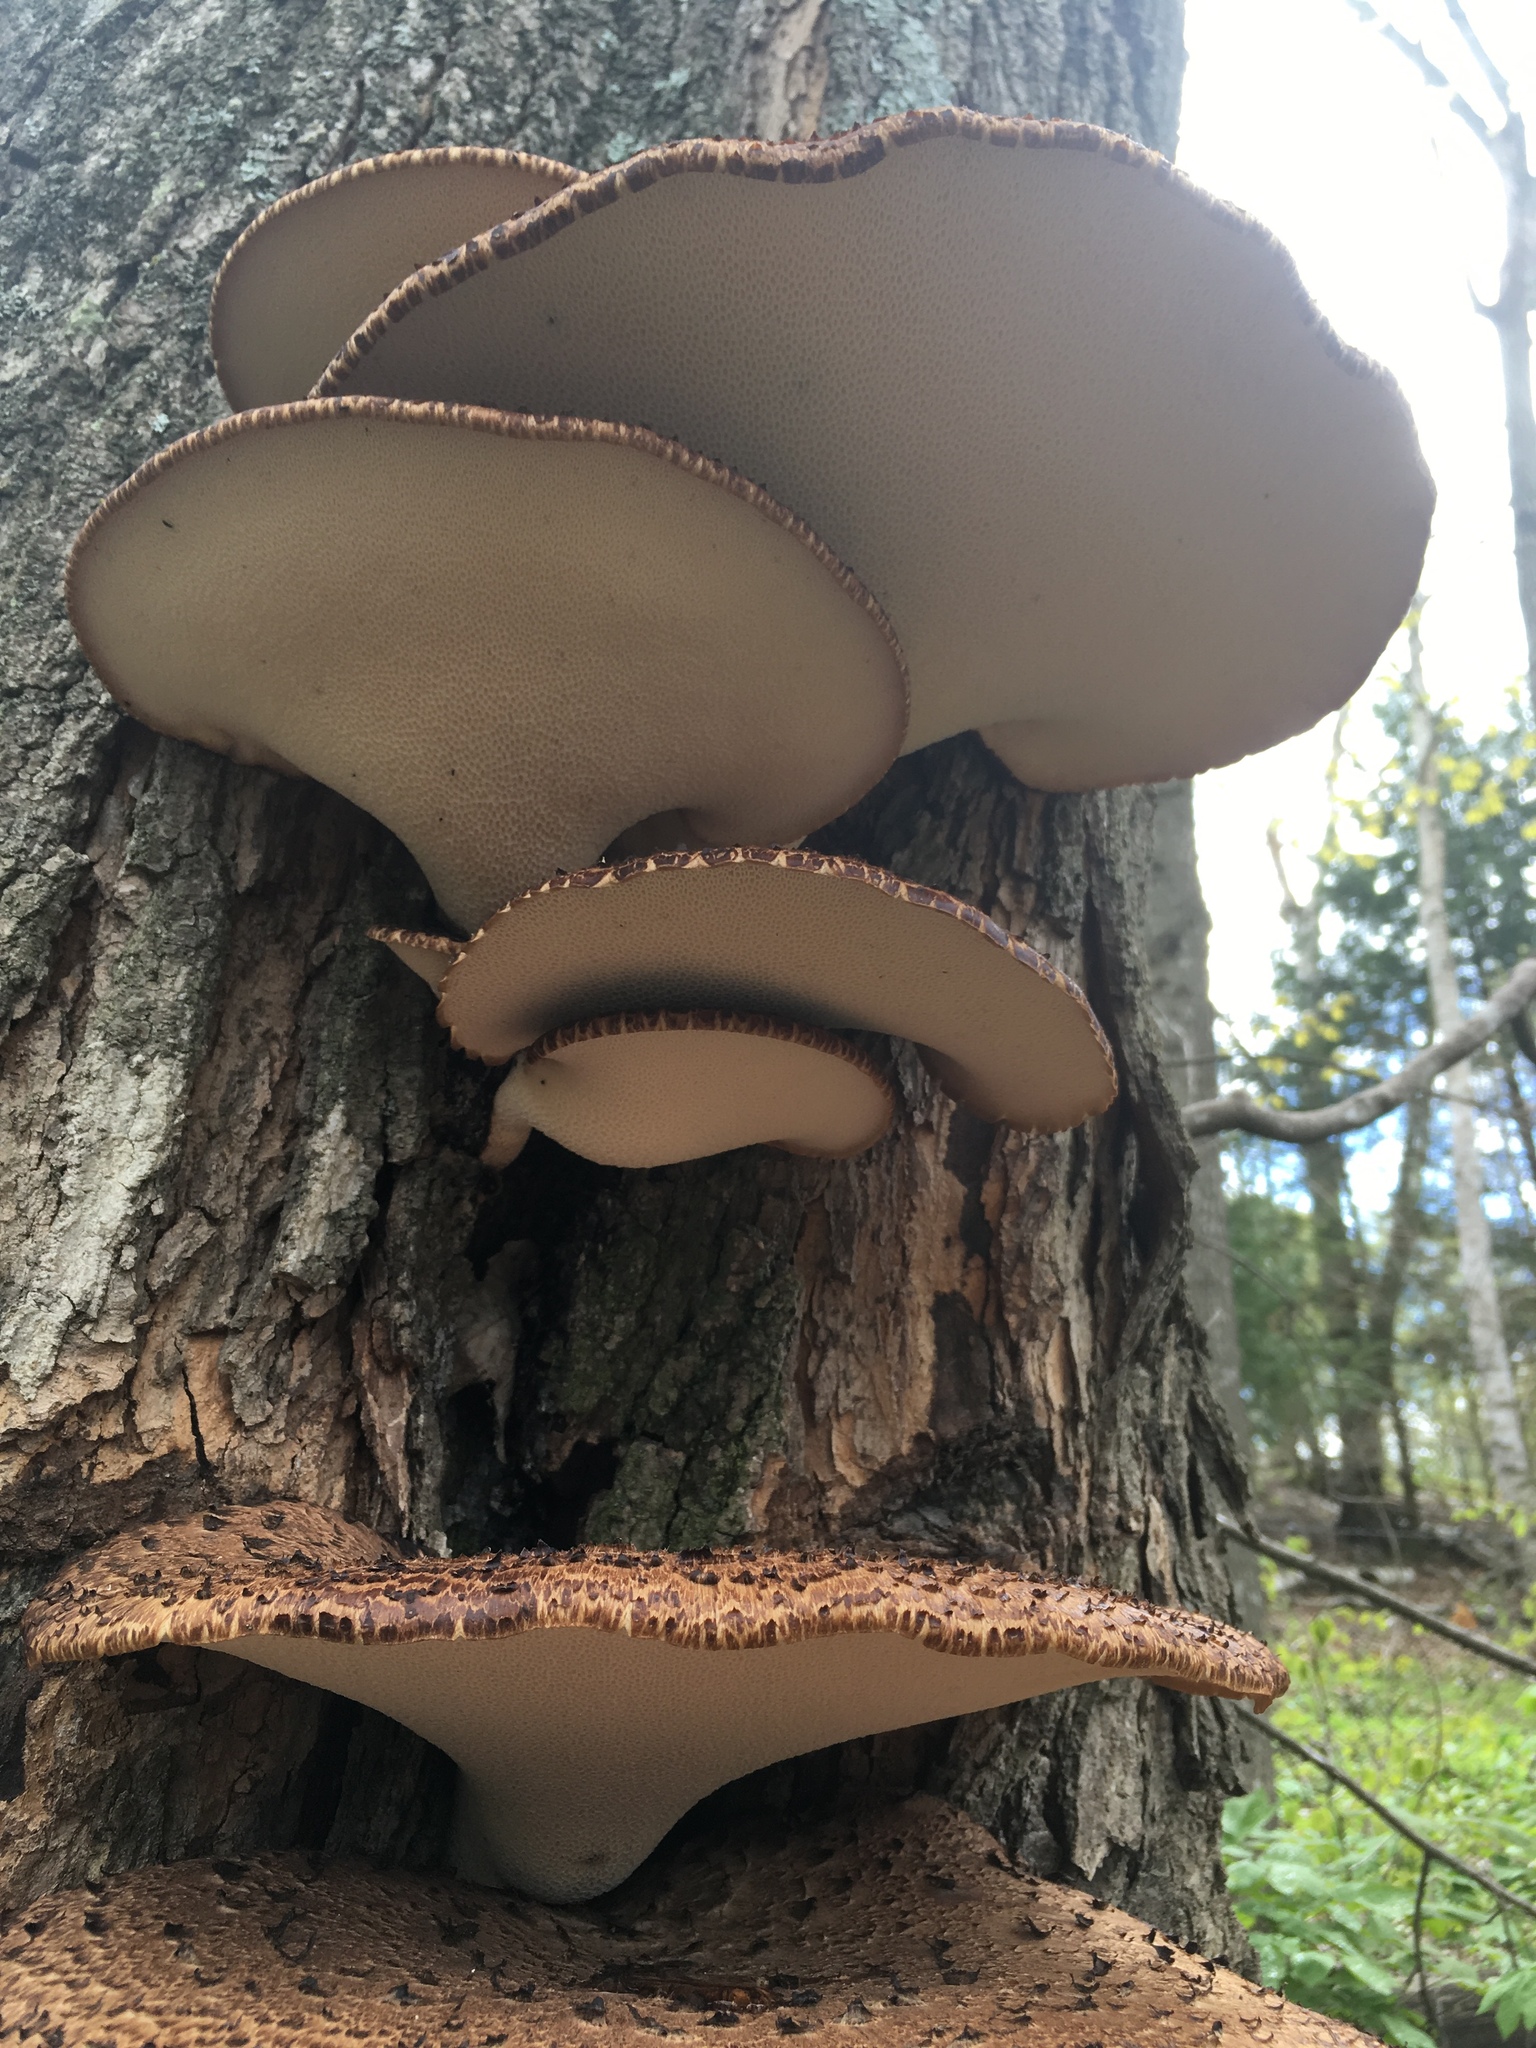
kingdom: Fungi
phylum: Basidiomycota
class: Agaricomycetes
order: Polyporales
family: Polyporaceae
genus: Cerioporus
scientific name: Cerioporus squamosus
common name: Dryad's saddle
